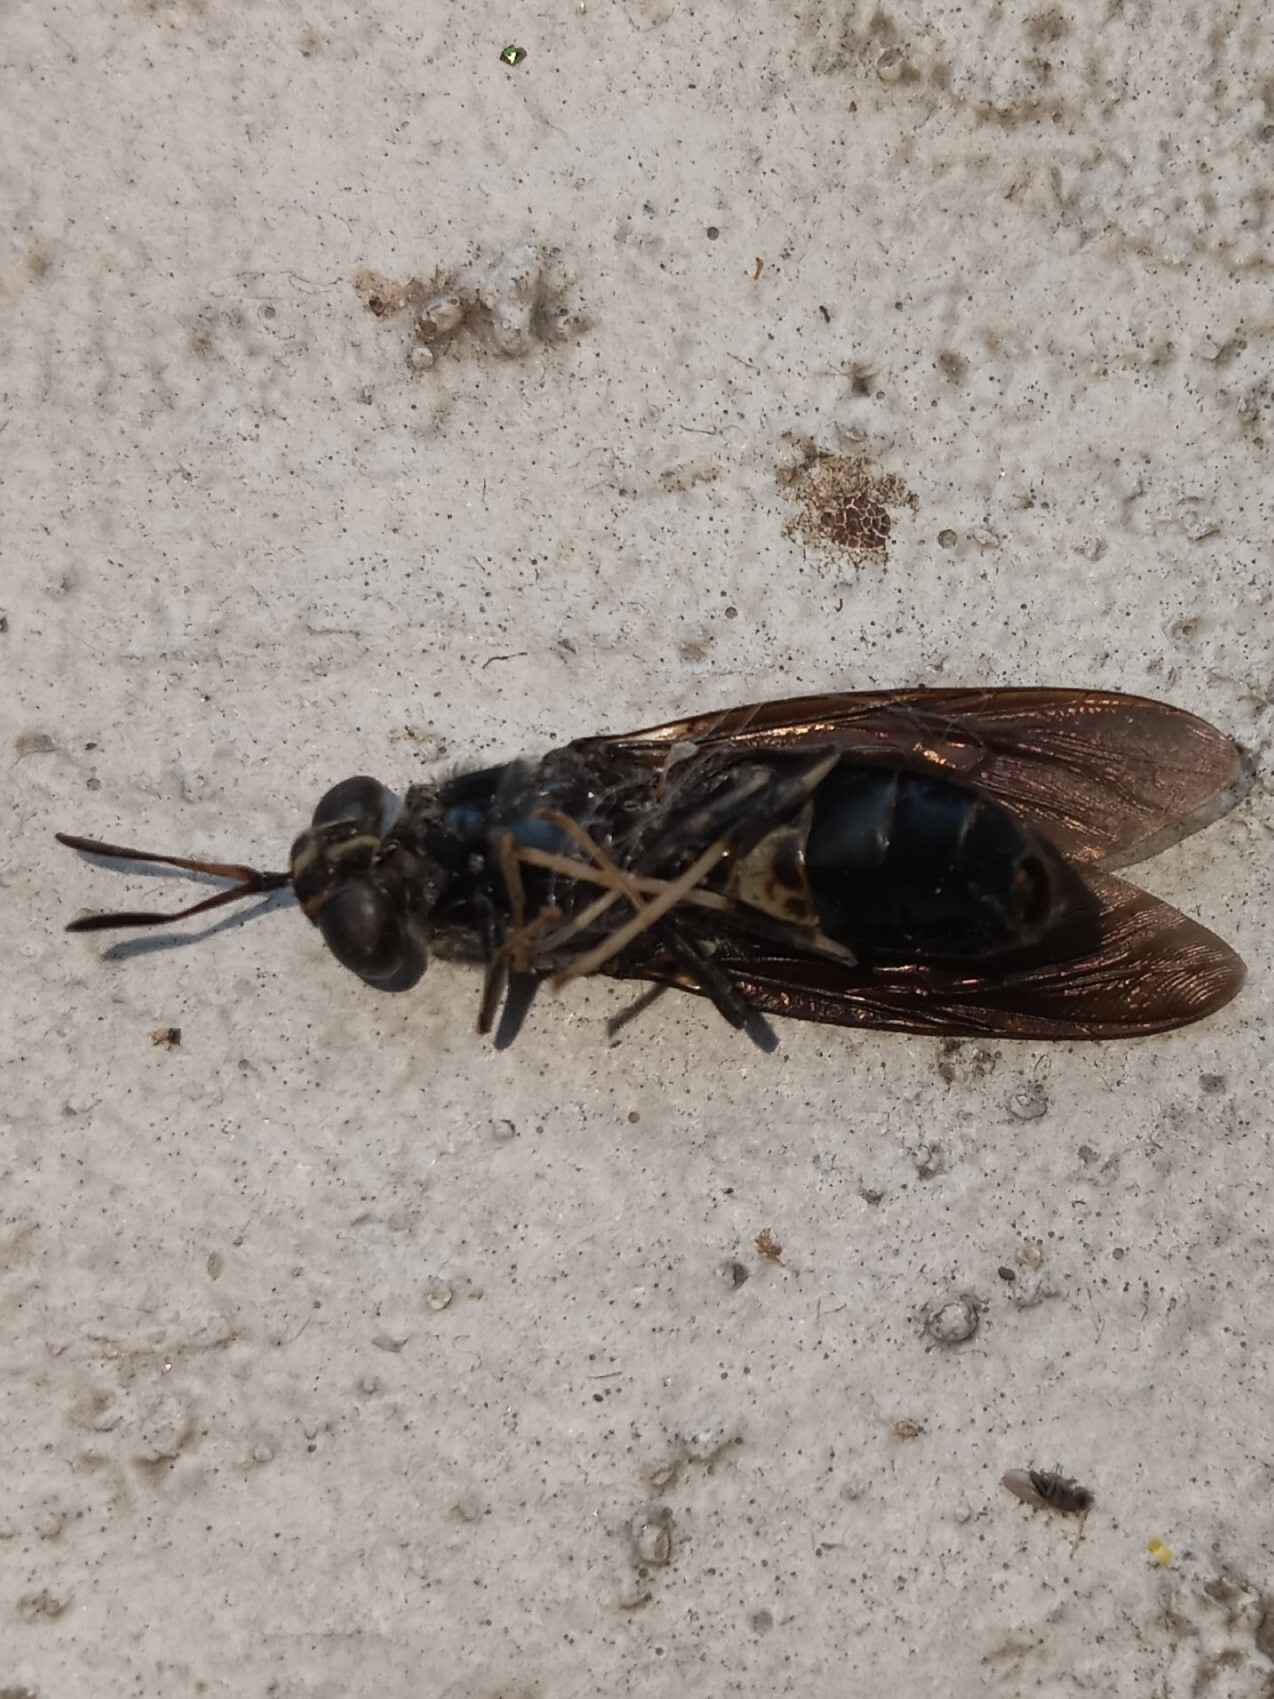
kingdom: Animalia
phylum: Arthropoda
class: Insecta
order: Diptera
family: Stratiomyidae
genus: Hermetia
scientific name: Hermetia illucens
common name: Black soldier fly
